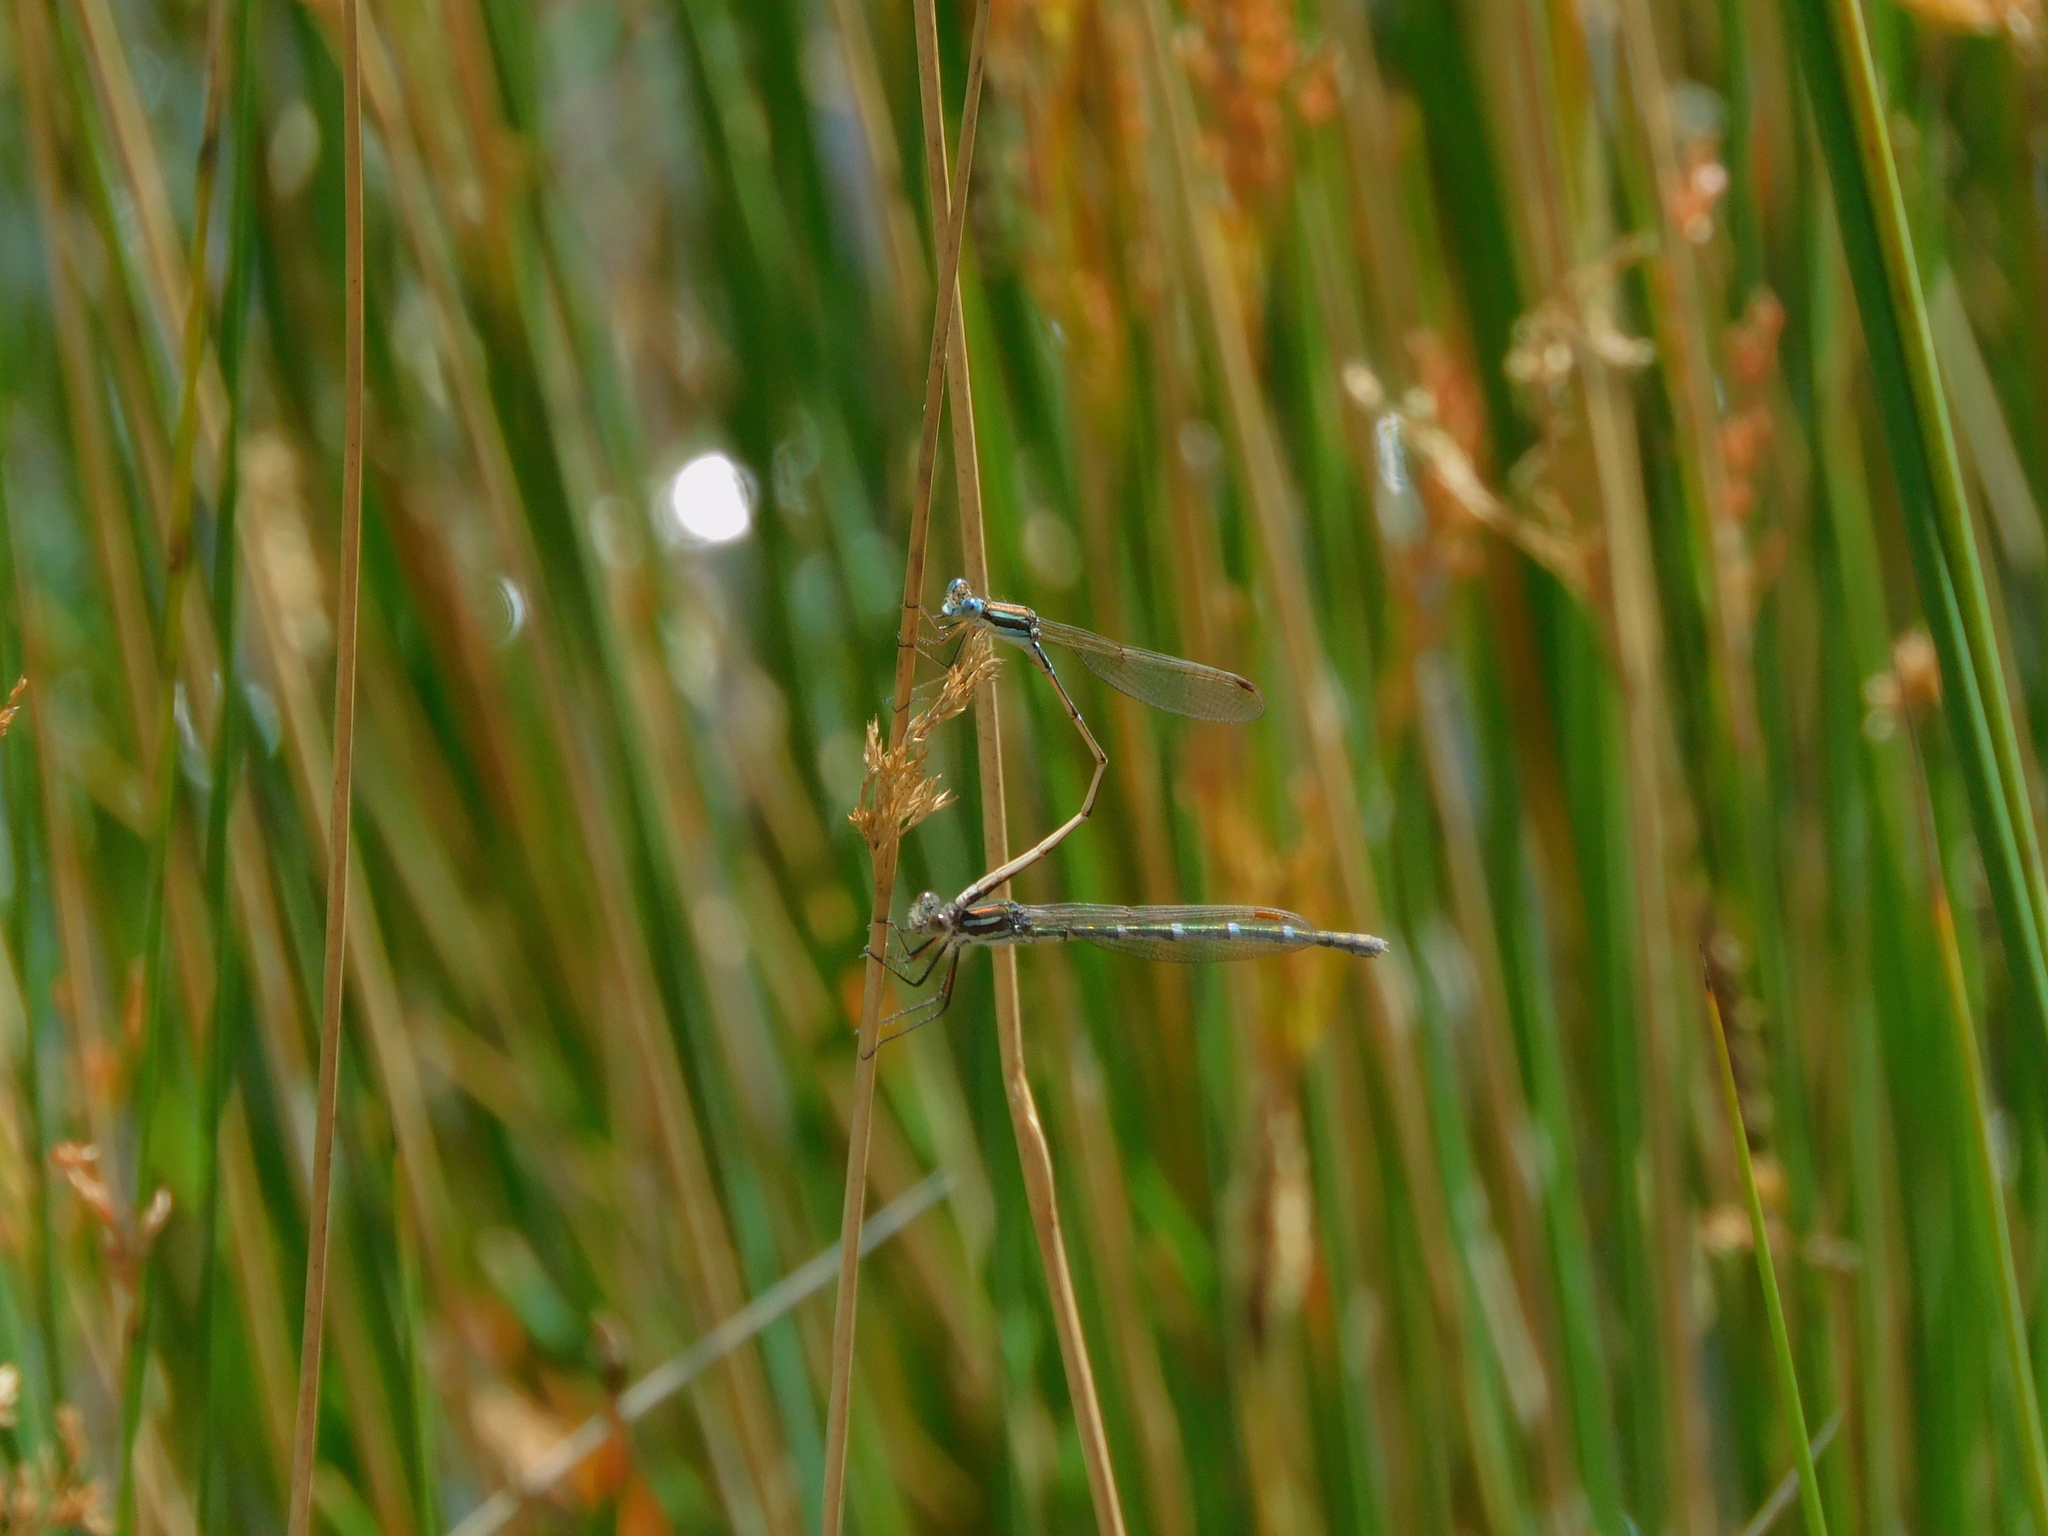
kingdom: Animalia
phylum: Arthropoda
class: Insecta
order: Odonata
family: Lestidae
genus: Austrolestes
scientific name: Austrolestes analis
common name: Slender ringtail
